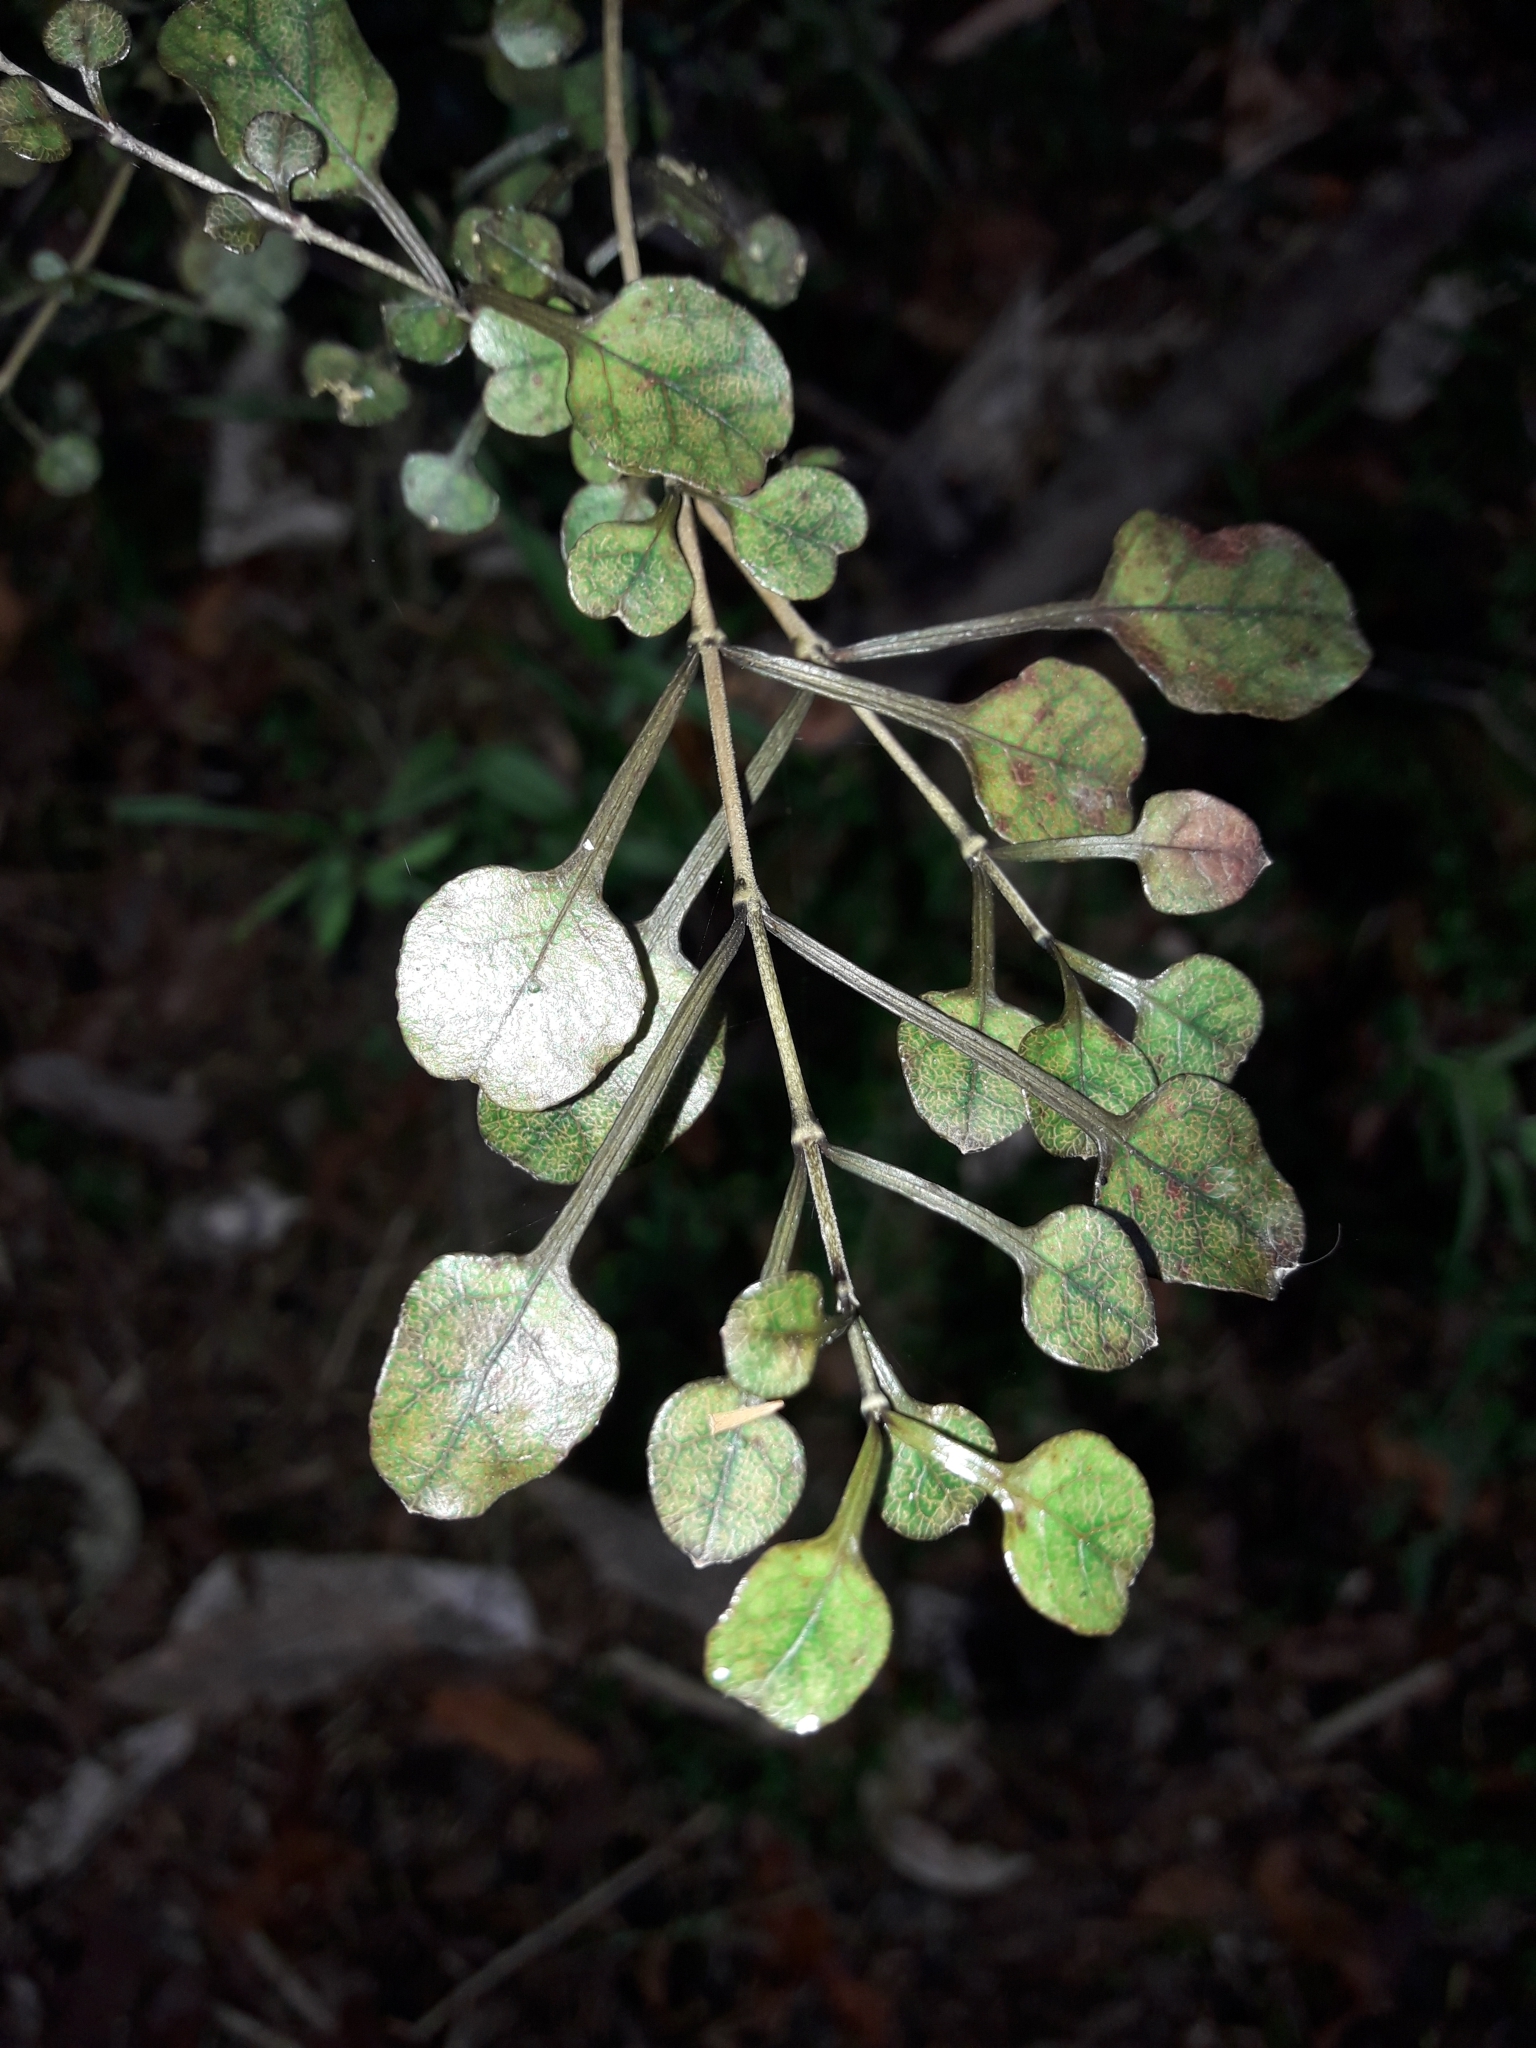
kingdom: Plantae
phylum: Tracheophyta
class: Magnoliopsida
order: Gentianales
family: Rubiaceae
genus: Coprosma
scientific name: Coprosma spathulata
